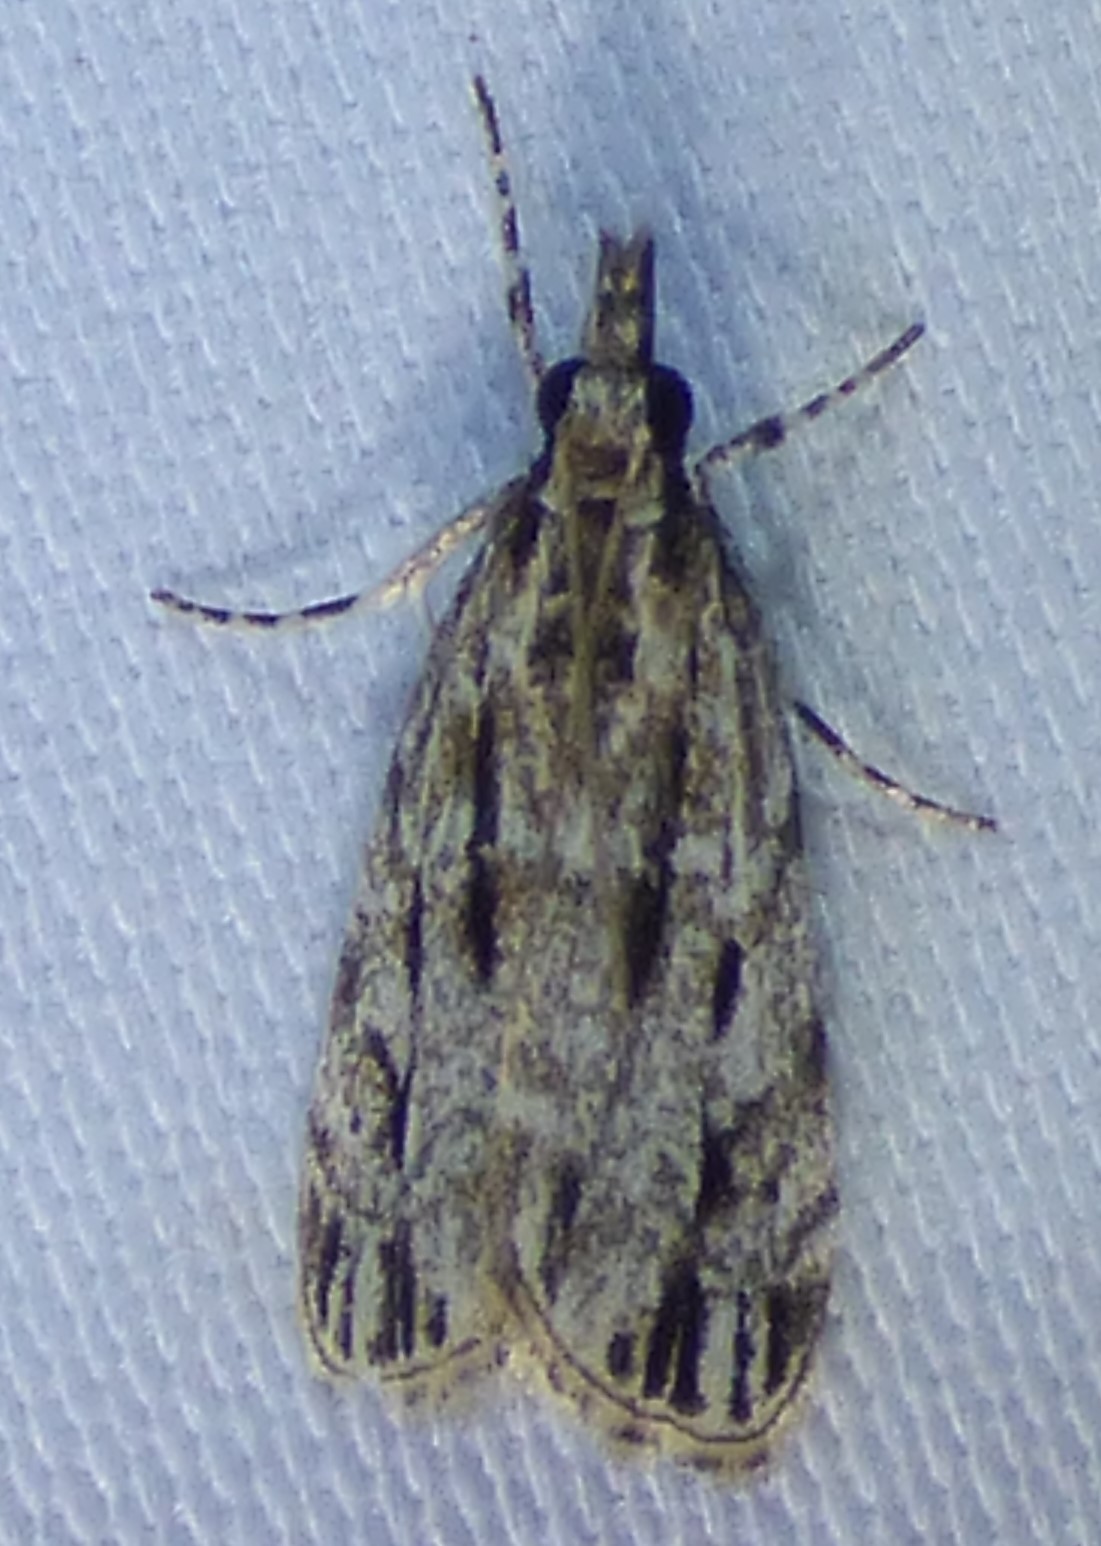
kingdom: Animalia
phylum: Arthropoda
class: Insecta
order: Lepidoptera
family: Crambidae
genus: Eudonia
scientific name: Eudonia strigalis
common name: Striped eudonia moth
